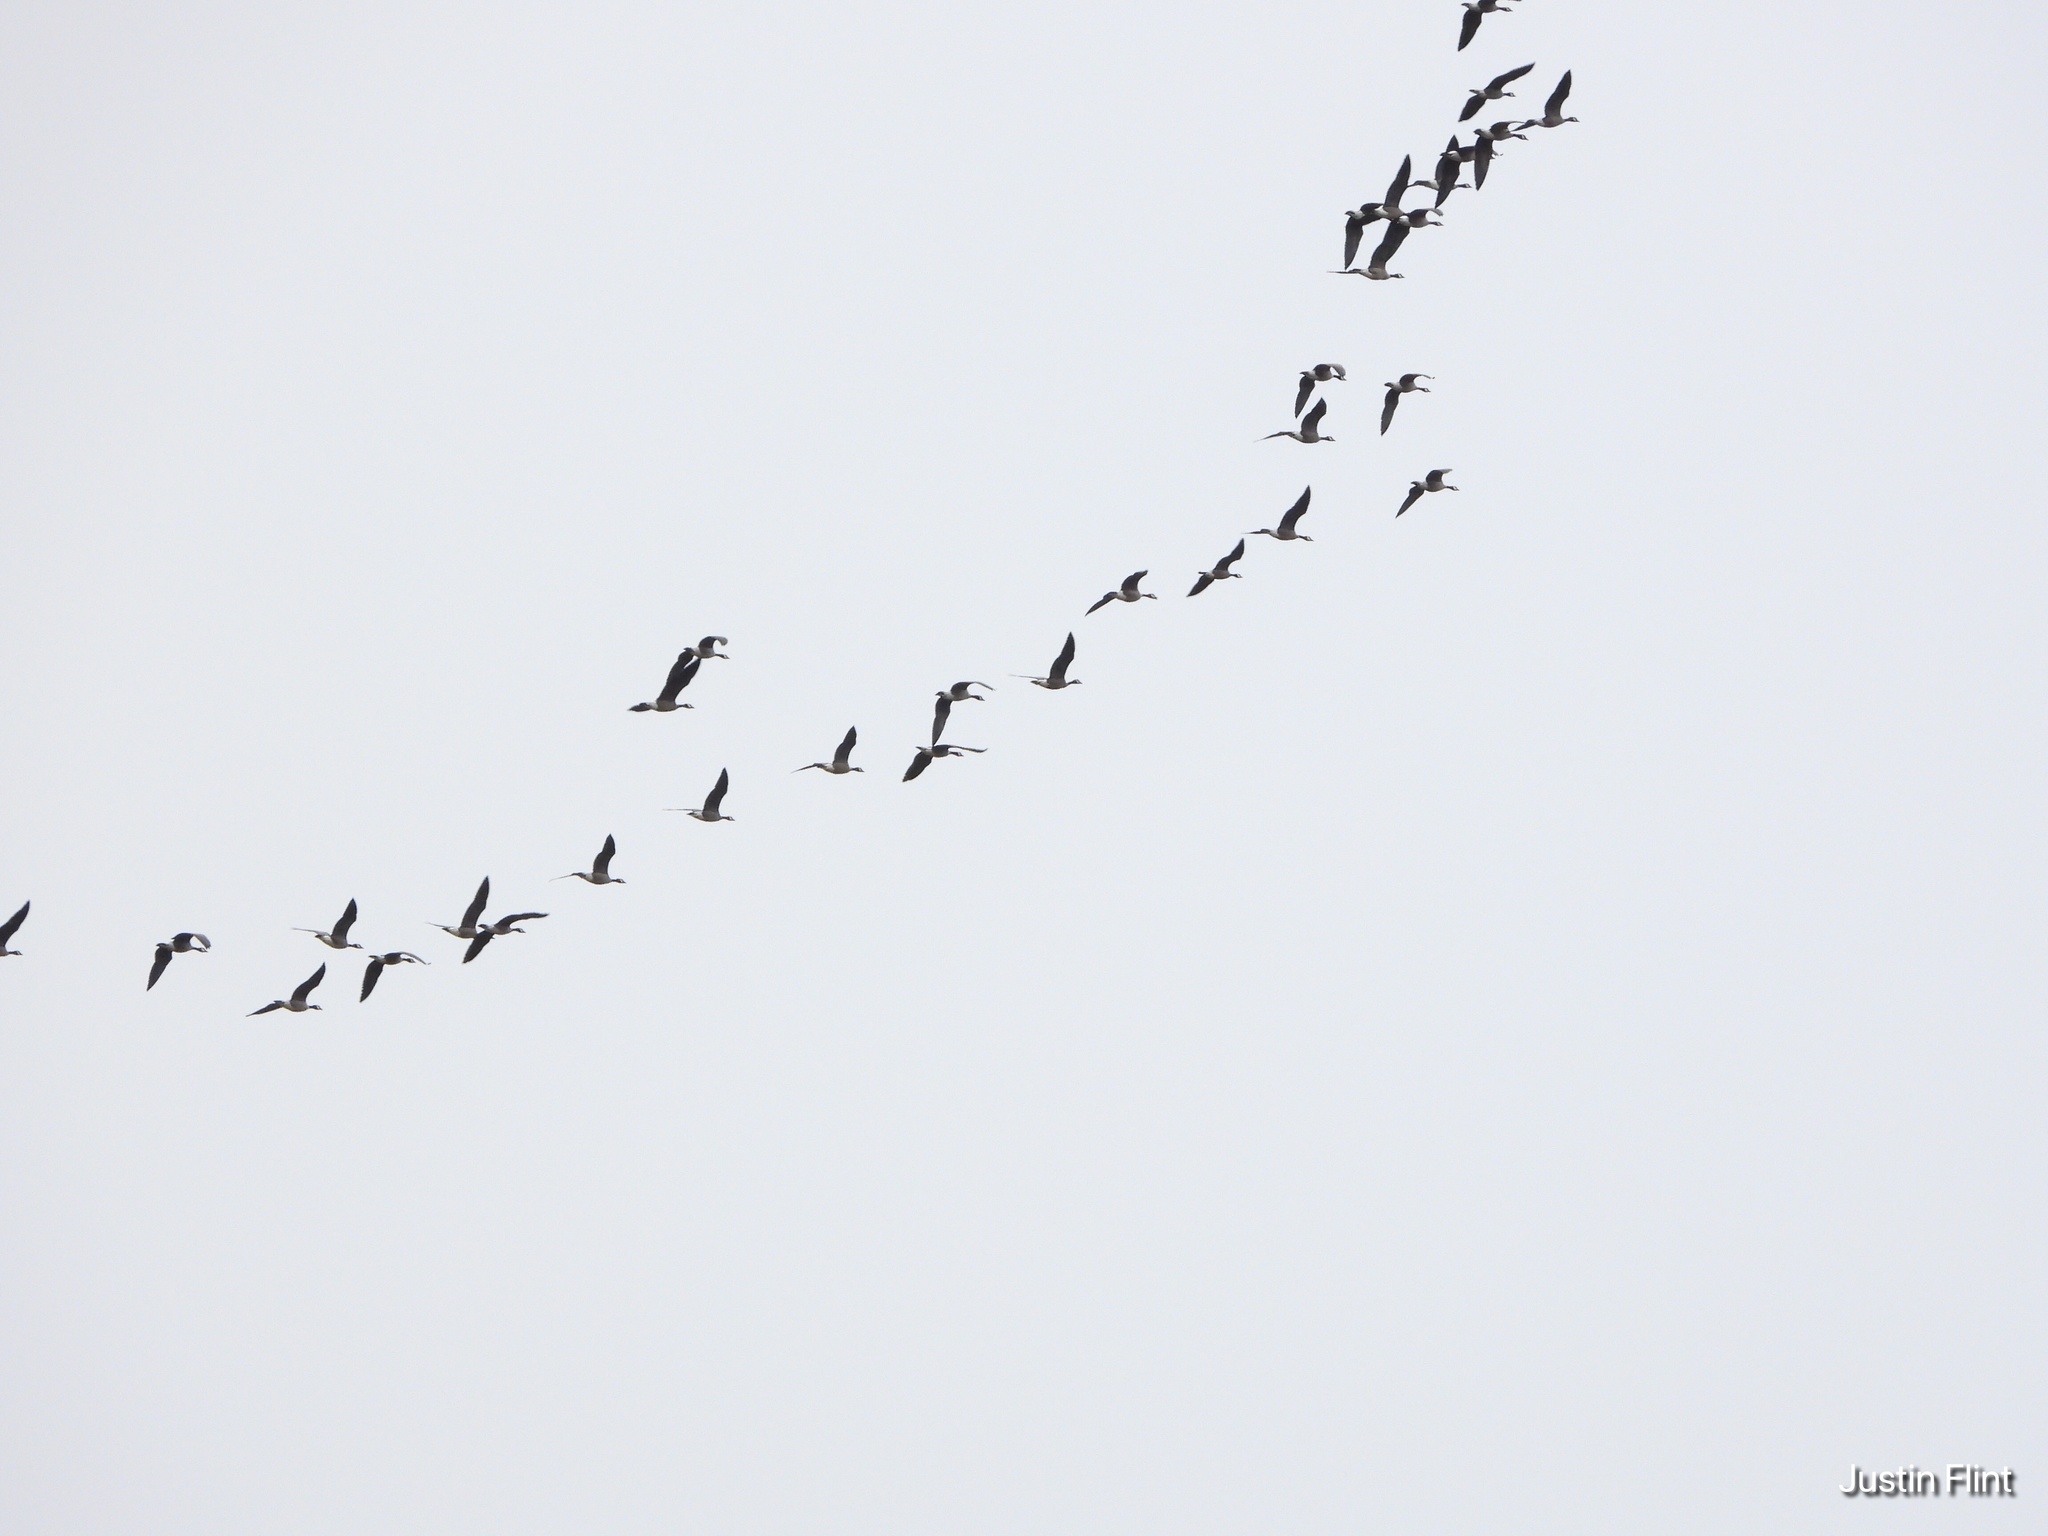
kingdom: Animalia
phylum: Chordata
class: Aves
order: Anseriformes
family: Anatidae
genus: Branta
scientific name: Branta canadensis
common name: Canada goose
